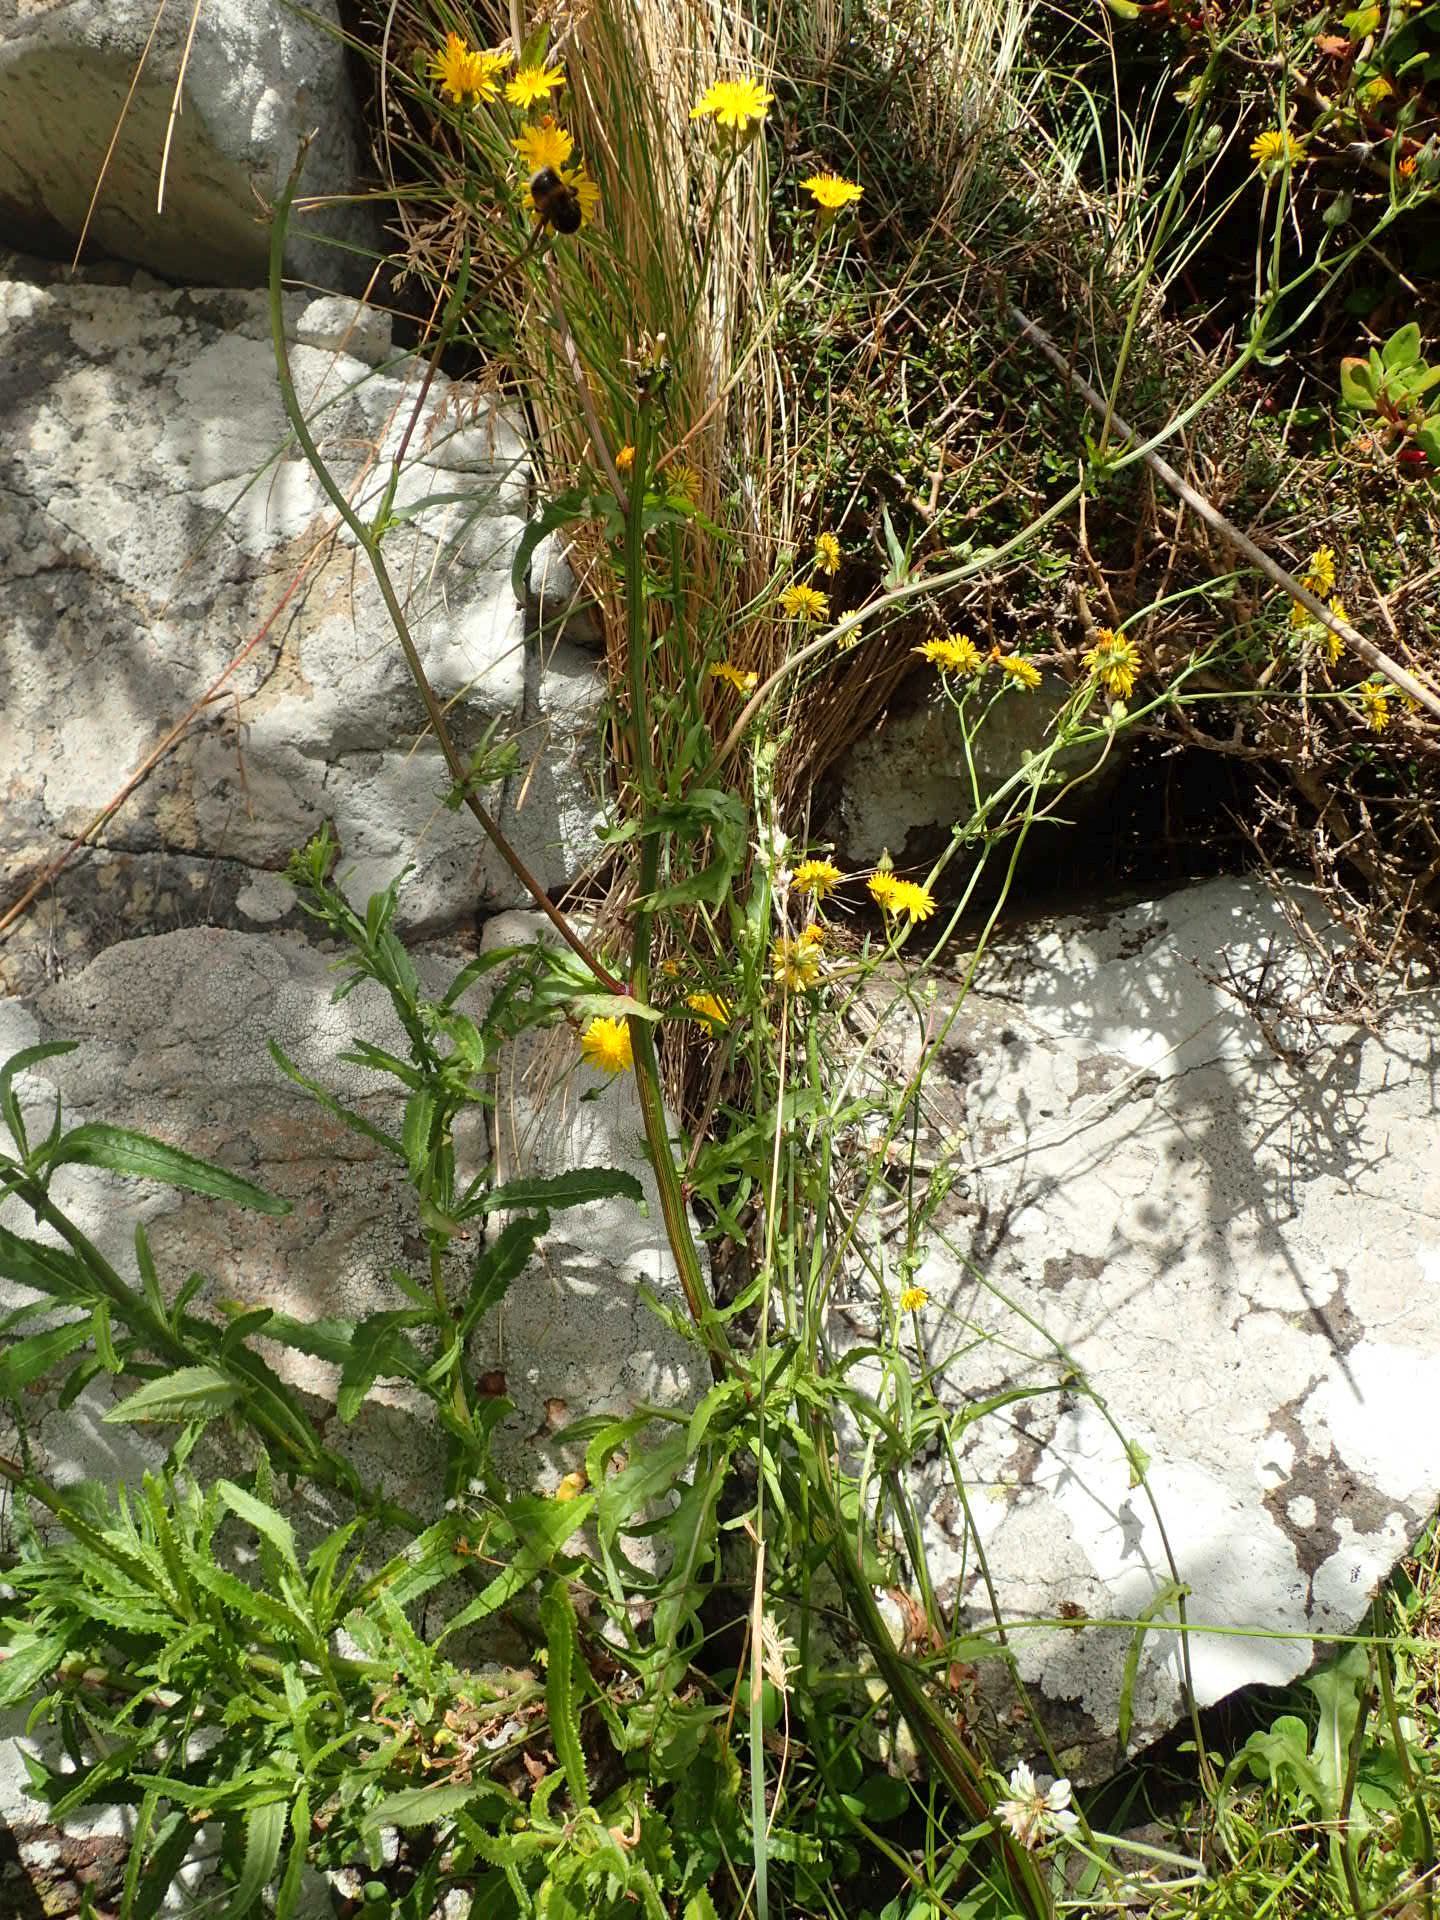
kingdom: Plantae
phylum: Tracheophyta
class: Magnoliopsida
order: Asterales
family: Asteraceae
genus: Crepis
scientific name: Crepis capillaris
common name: Smooth hawksbeard
